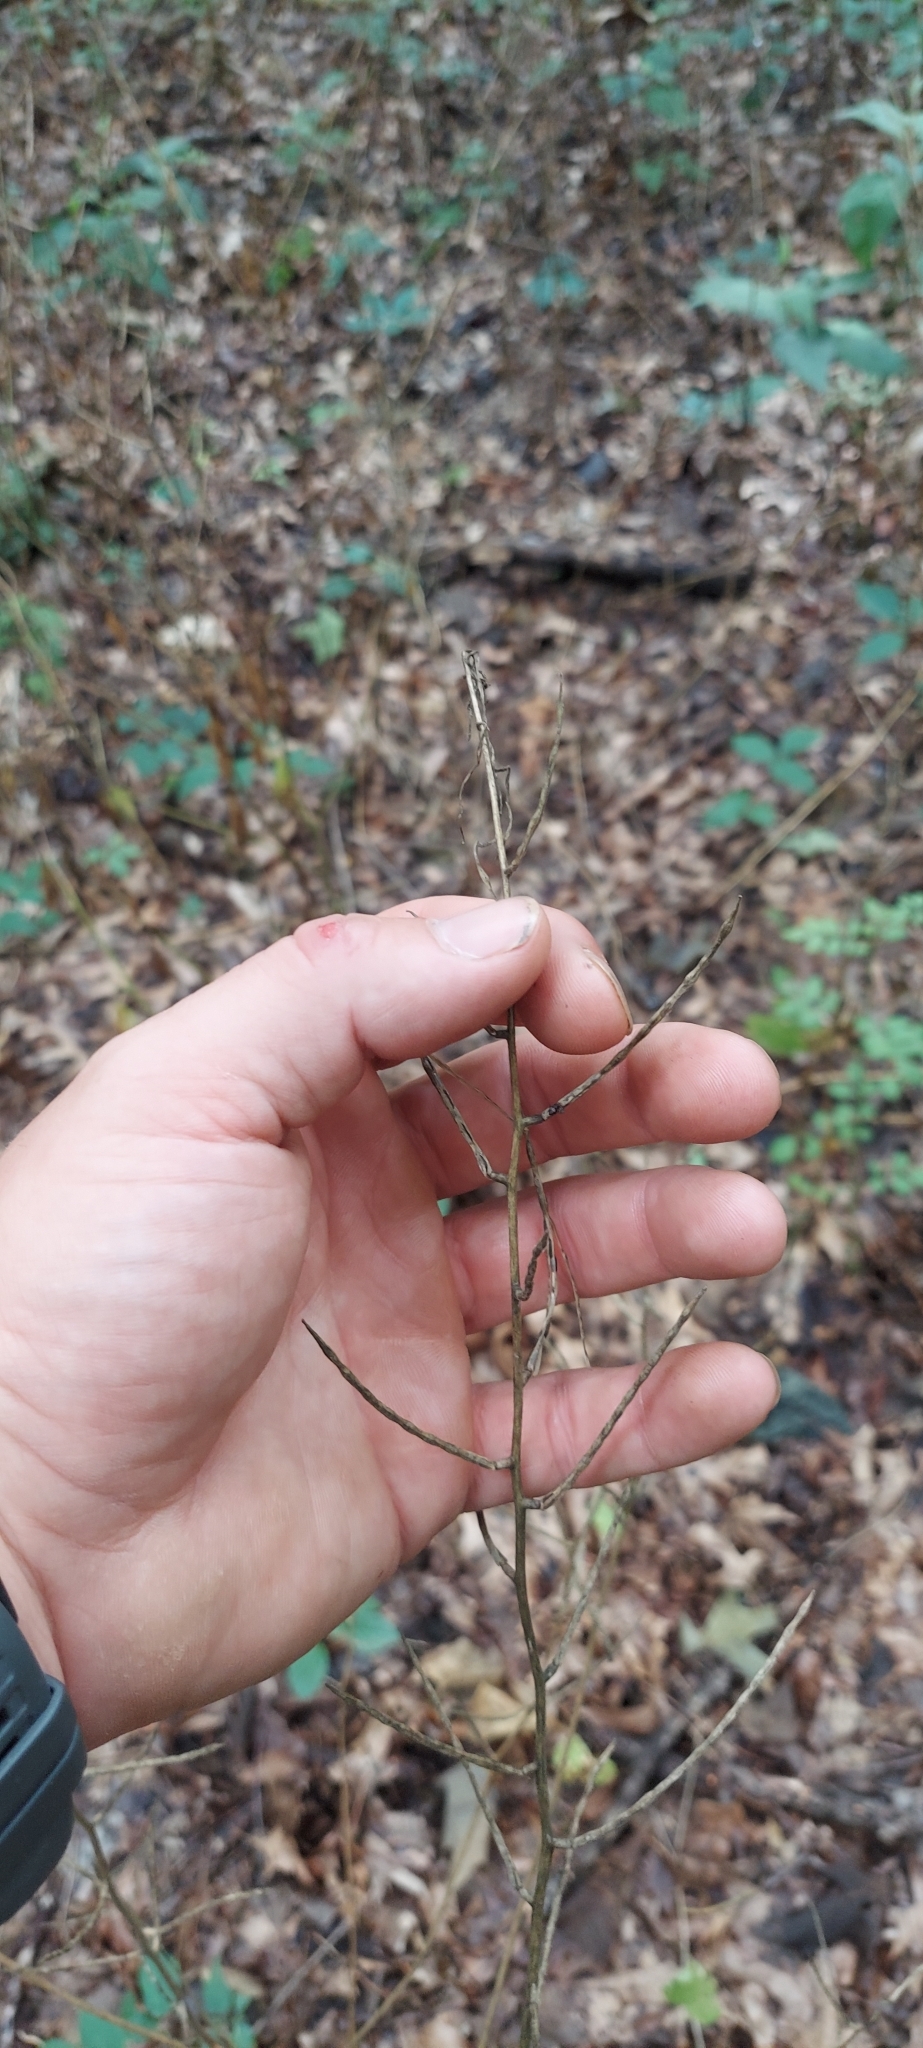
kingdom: Plantae
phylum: Tracheophyta
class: Magnoliopsida
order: Brassicales
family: Brassicaceae
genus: Alliaria
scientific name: Alliaria petiolata
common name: Garlic mustard
